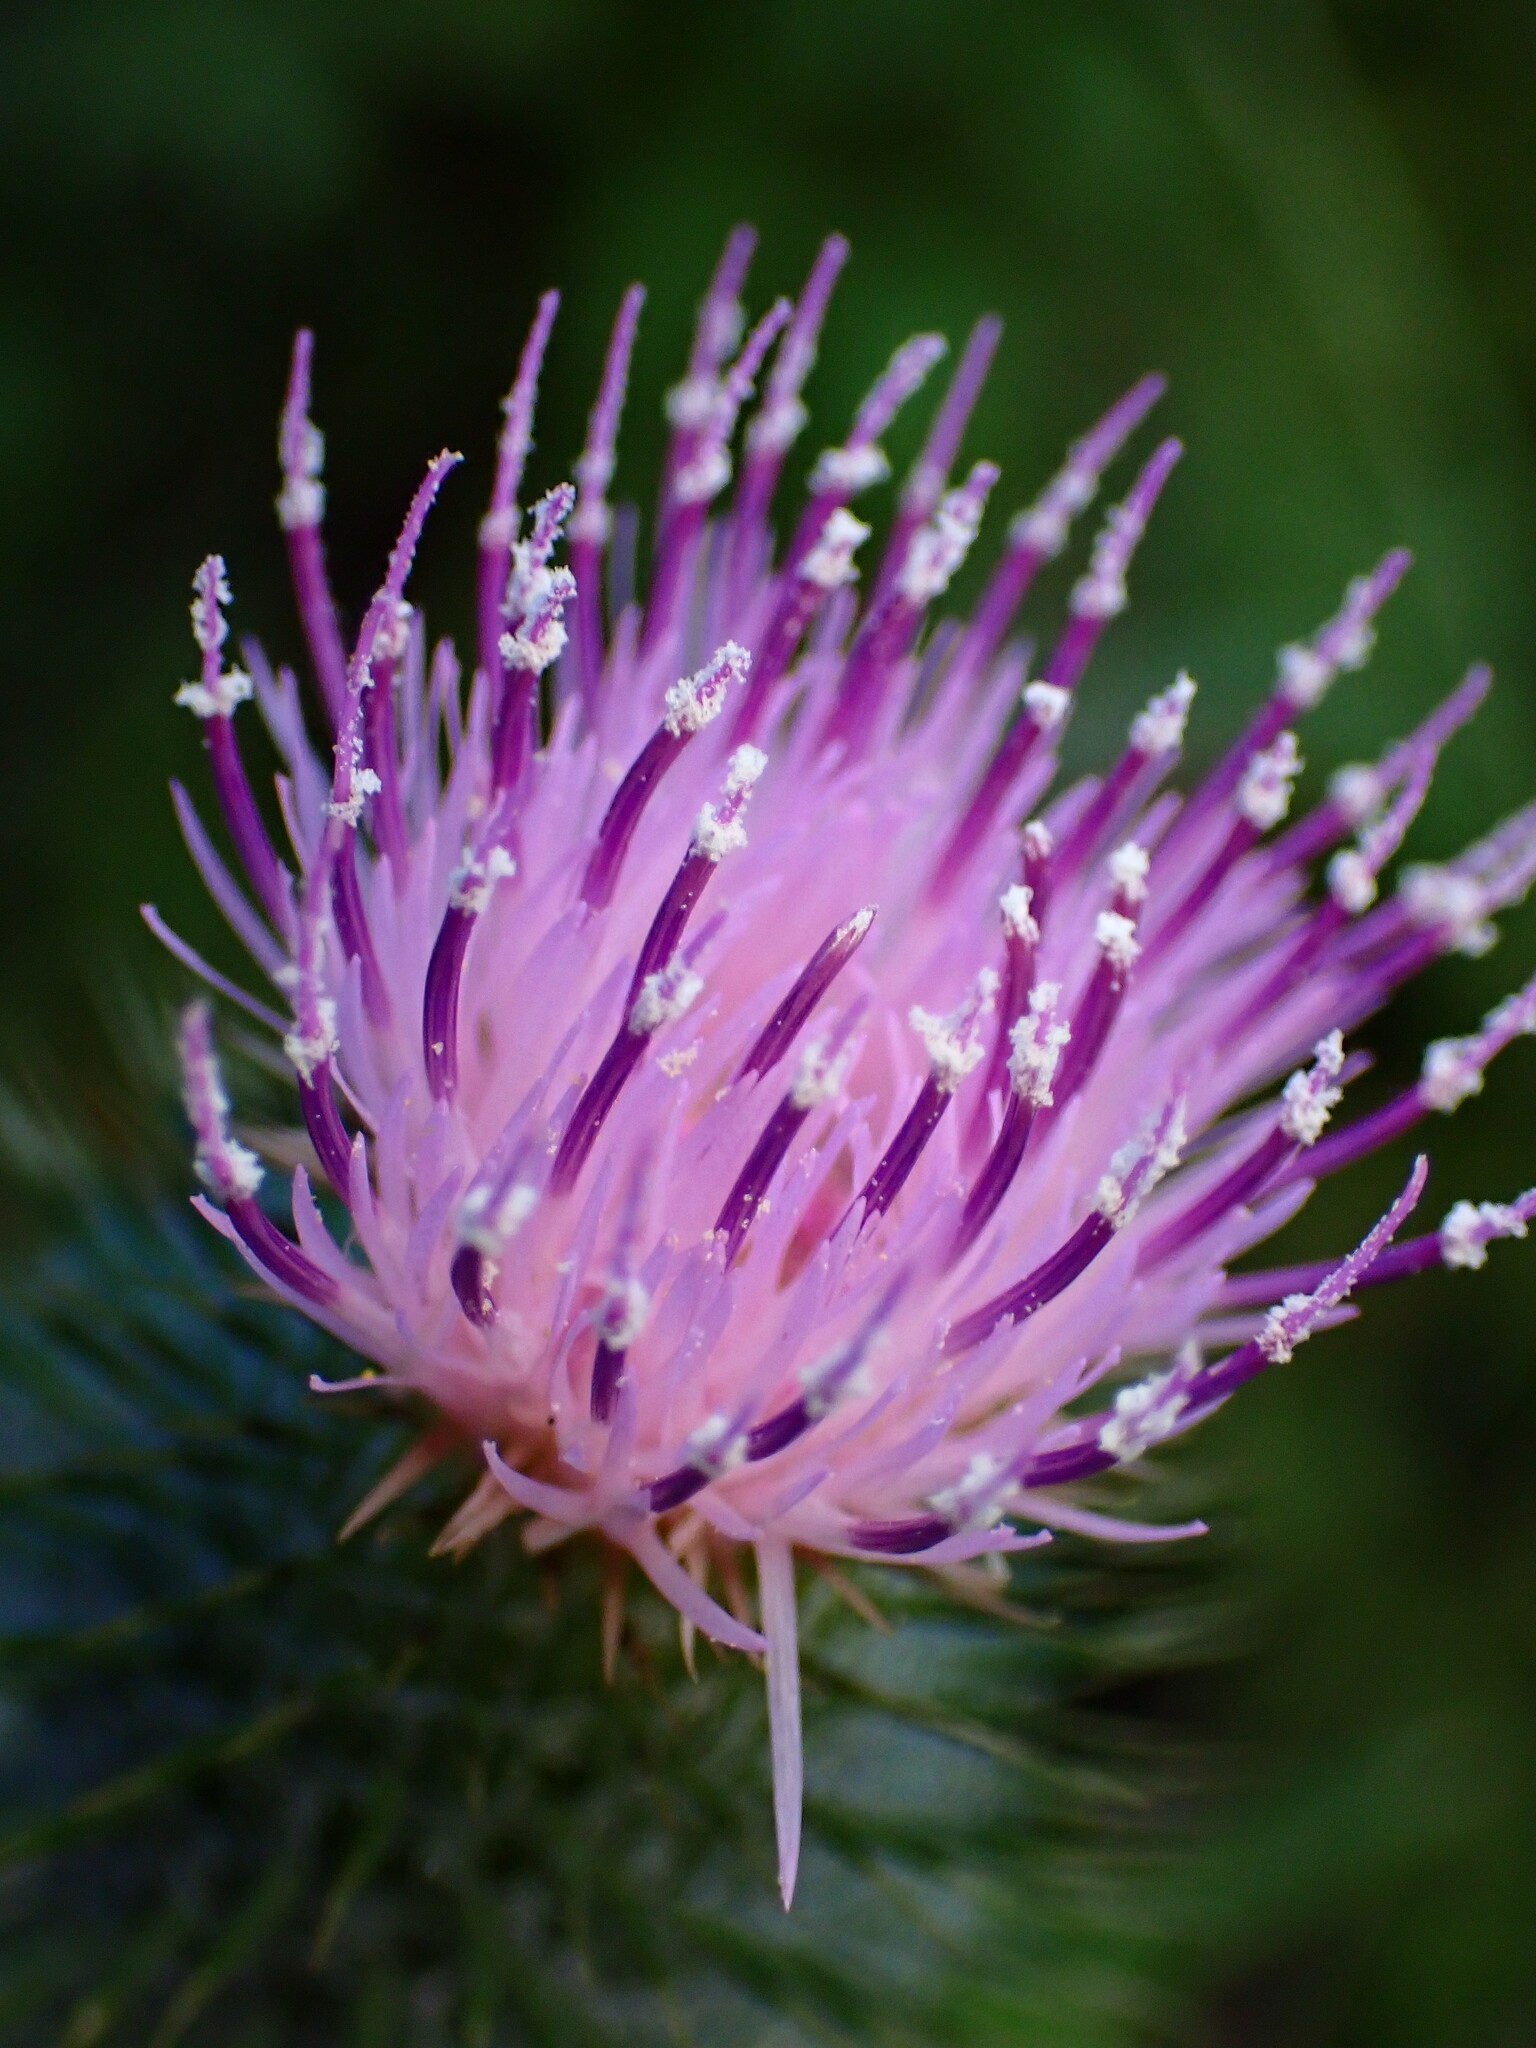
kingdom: Plantae
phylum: Tracheophyta
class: Magnoliopsida
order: Asterales
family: Asteraceae
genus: Cirsium
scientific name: Cirsium vulgare
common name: Bull thistle
